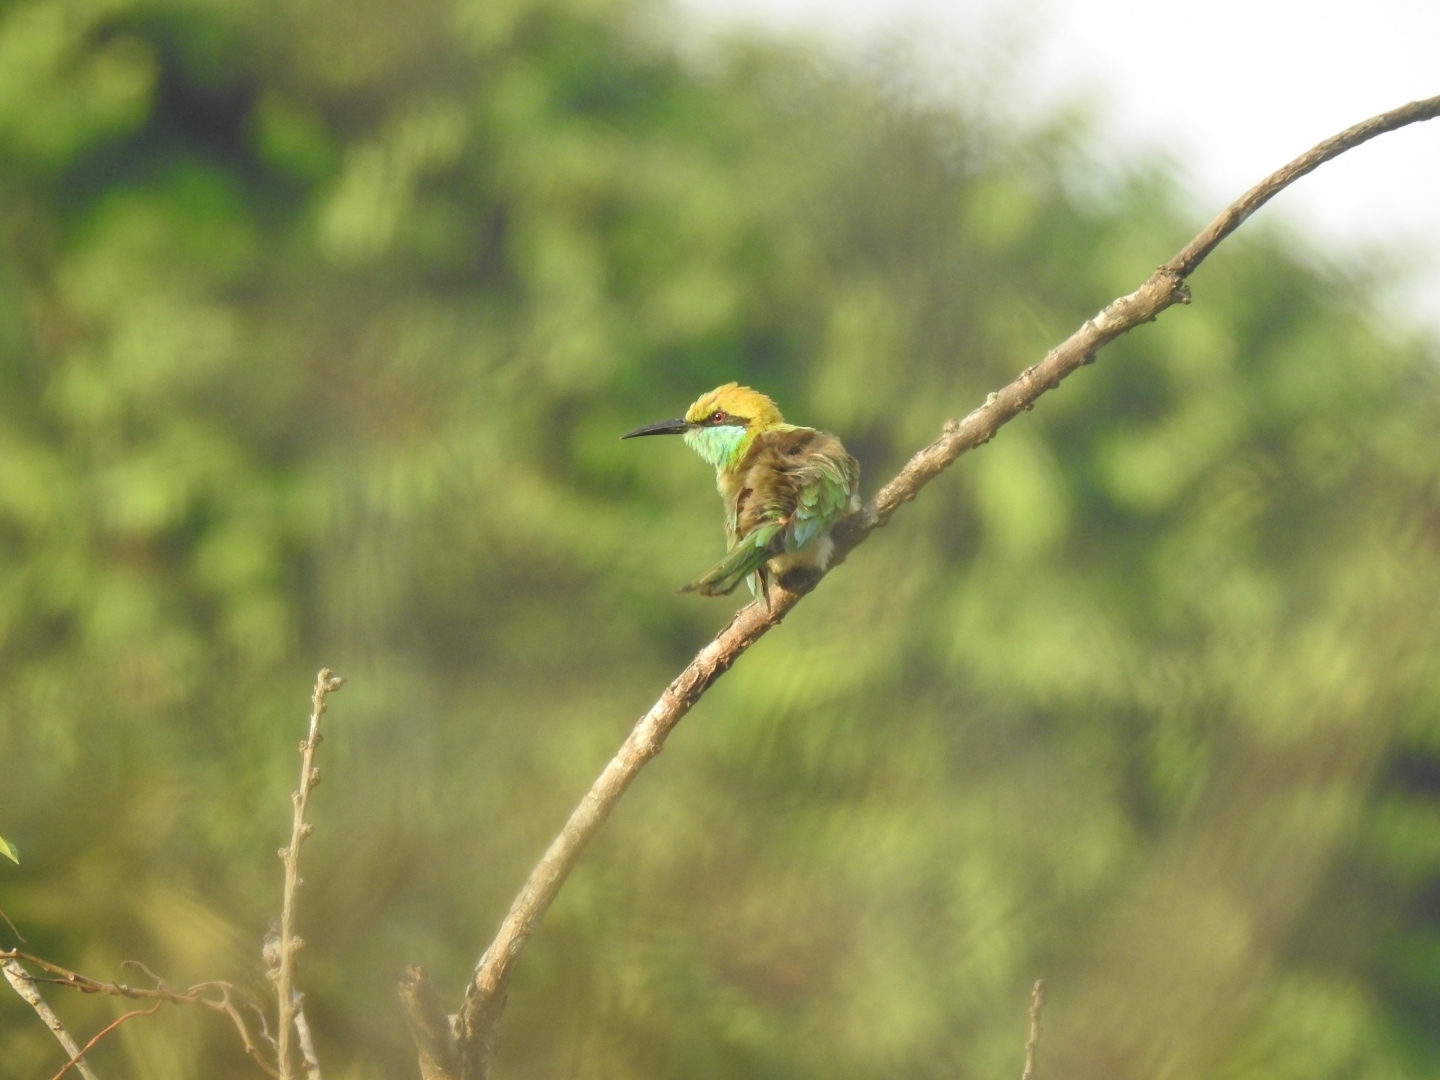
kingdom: Animalia
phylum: Chordata
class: Aves
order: Coraciiformes
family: Meropidae
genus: Merops
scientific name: Merops orientalis
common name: Green bee-eater
